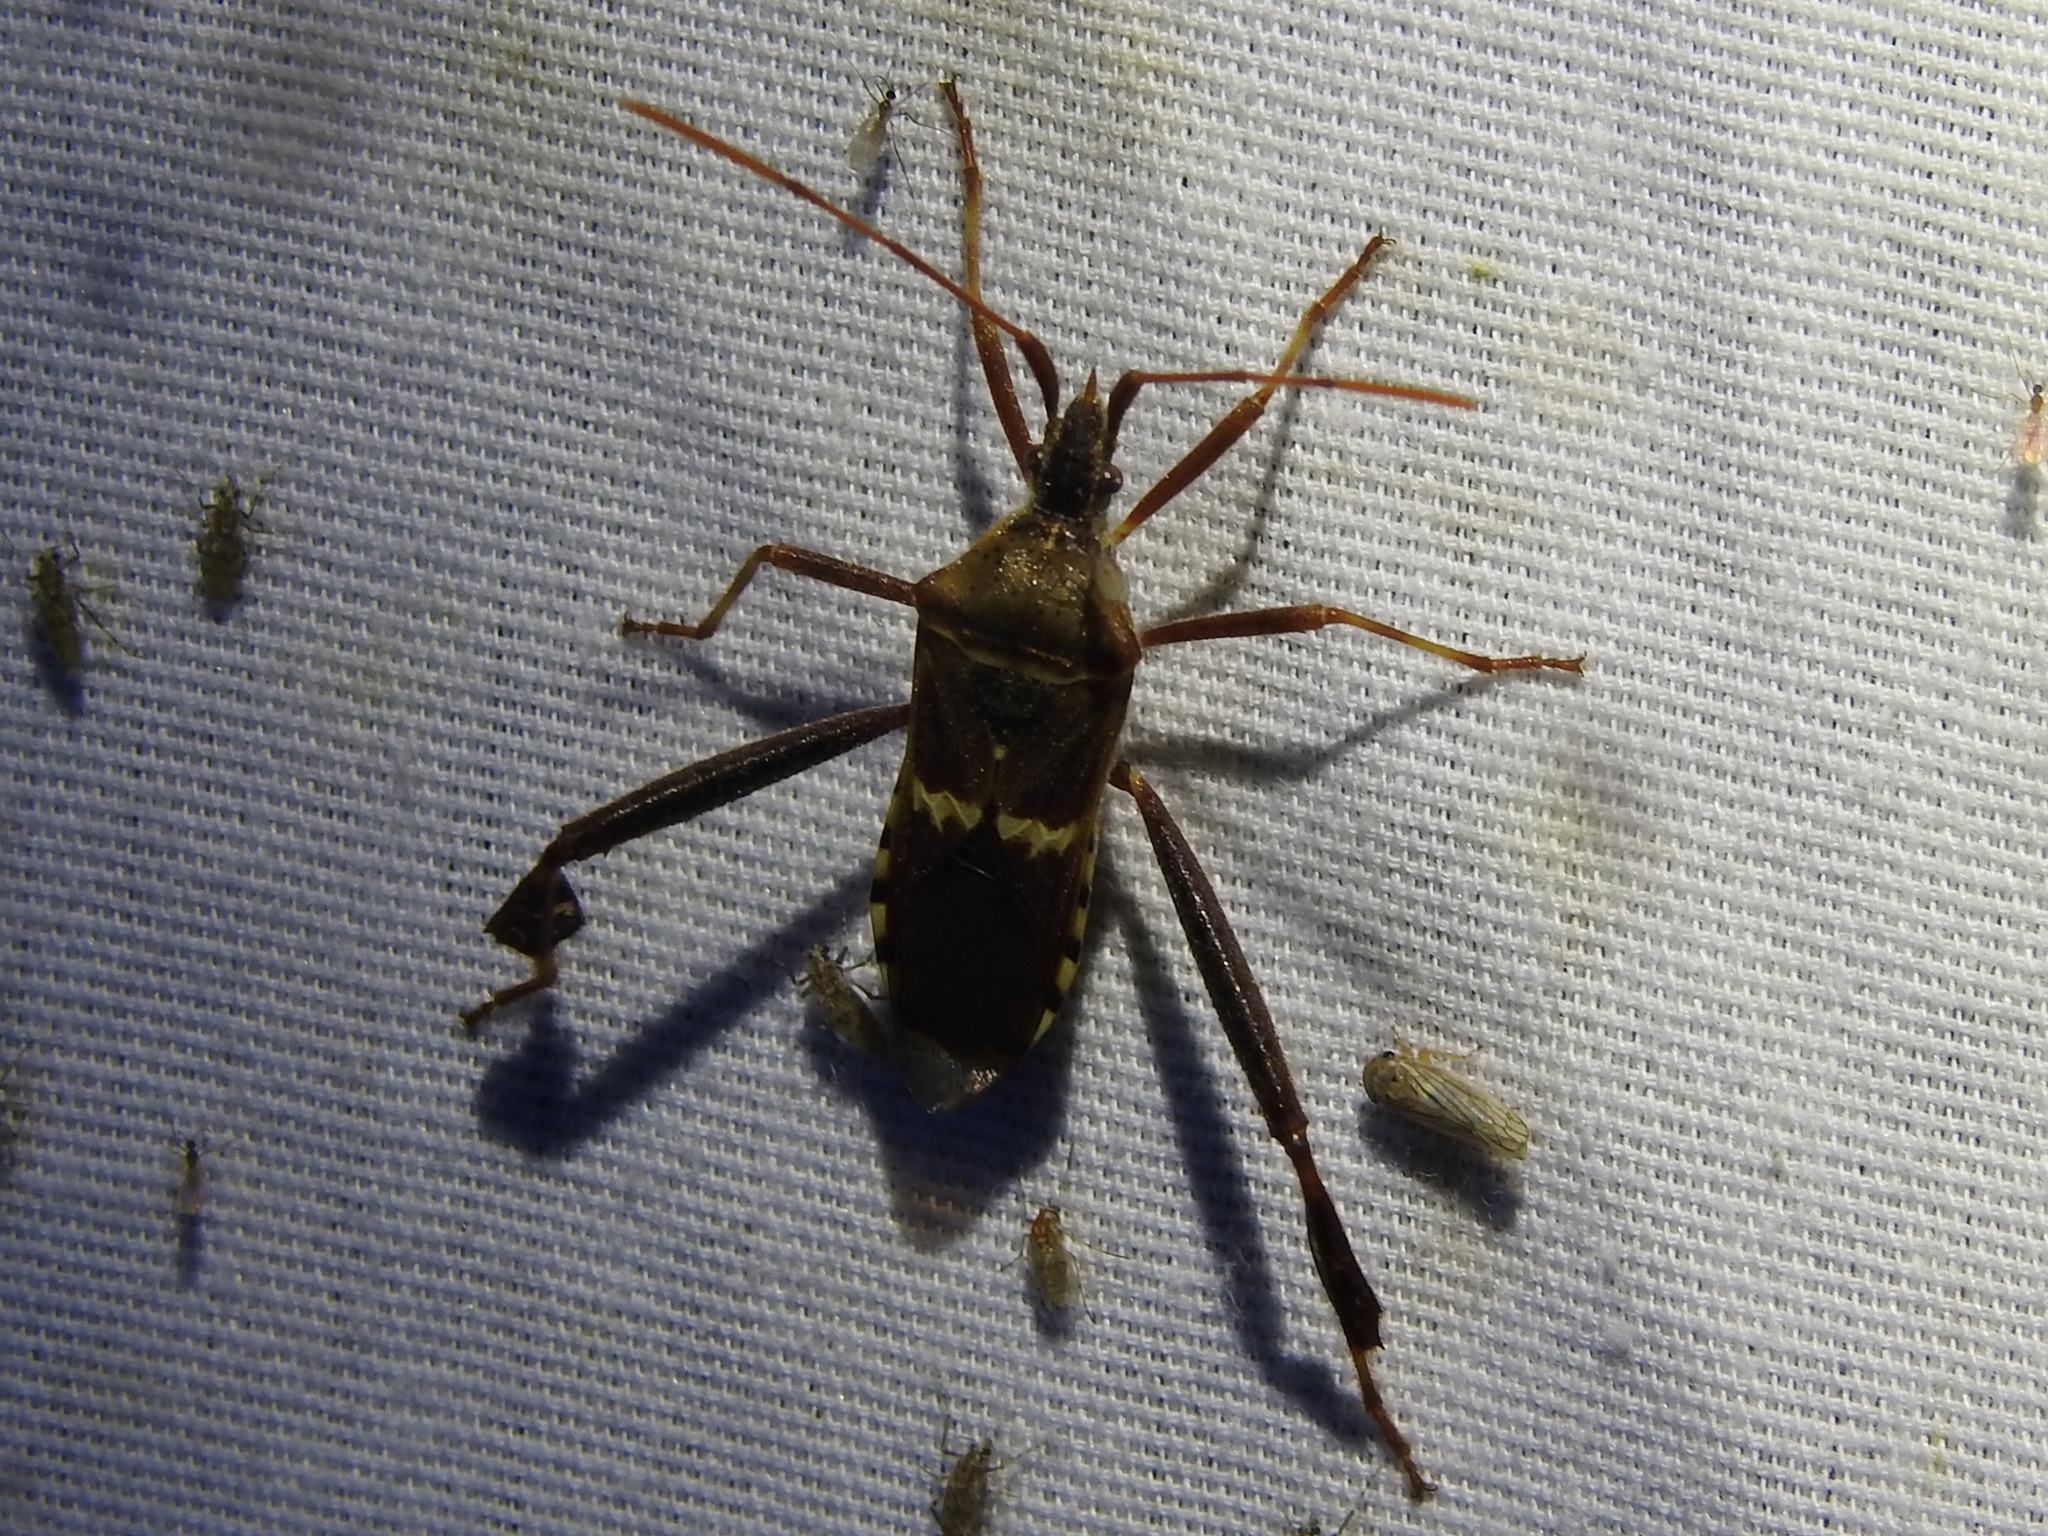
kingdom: Animalia
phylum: Arthropoda
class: Insecta
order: Hemiptera
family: Coreidae
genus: Leptoglossus
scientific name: Leptoglossus clypealis
